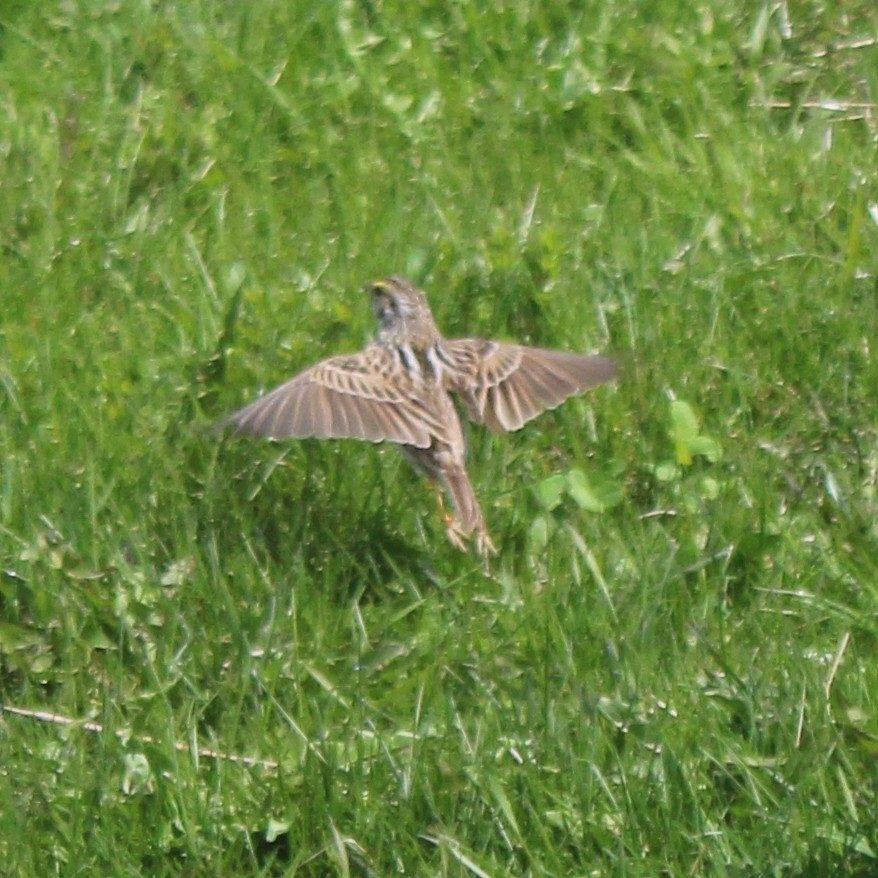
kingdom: Animalia
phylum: Chordata
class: Aves
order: Passeriformes
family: Passerellidae
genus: Passerculus
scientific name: Passerculus sandwichensis
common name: Savannah sparrow
